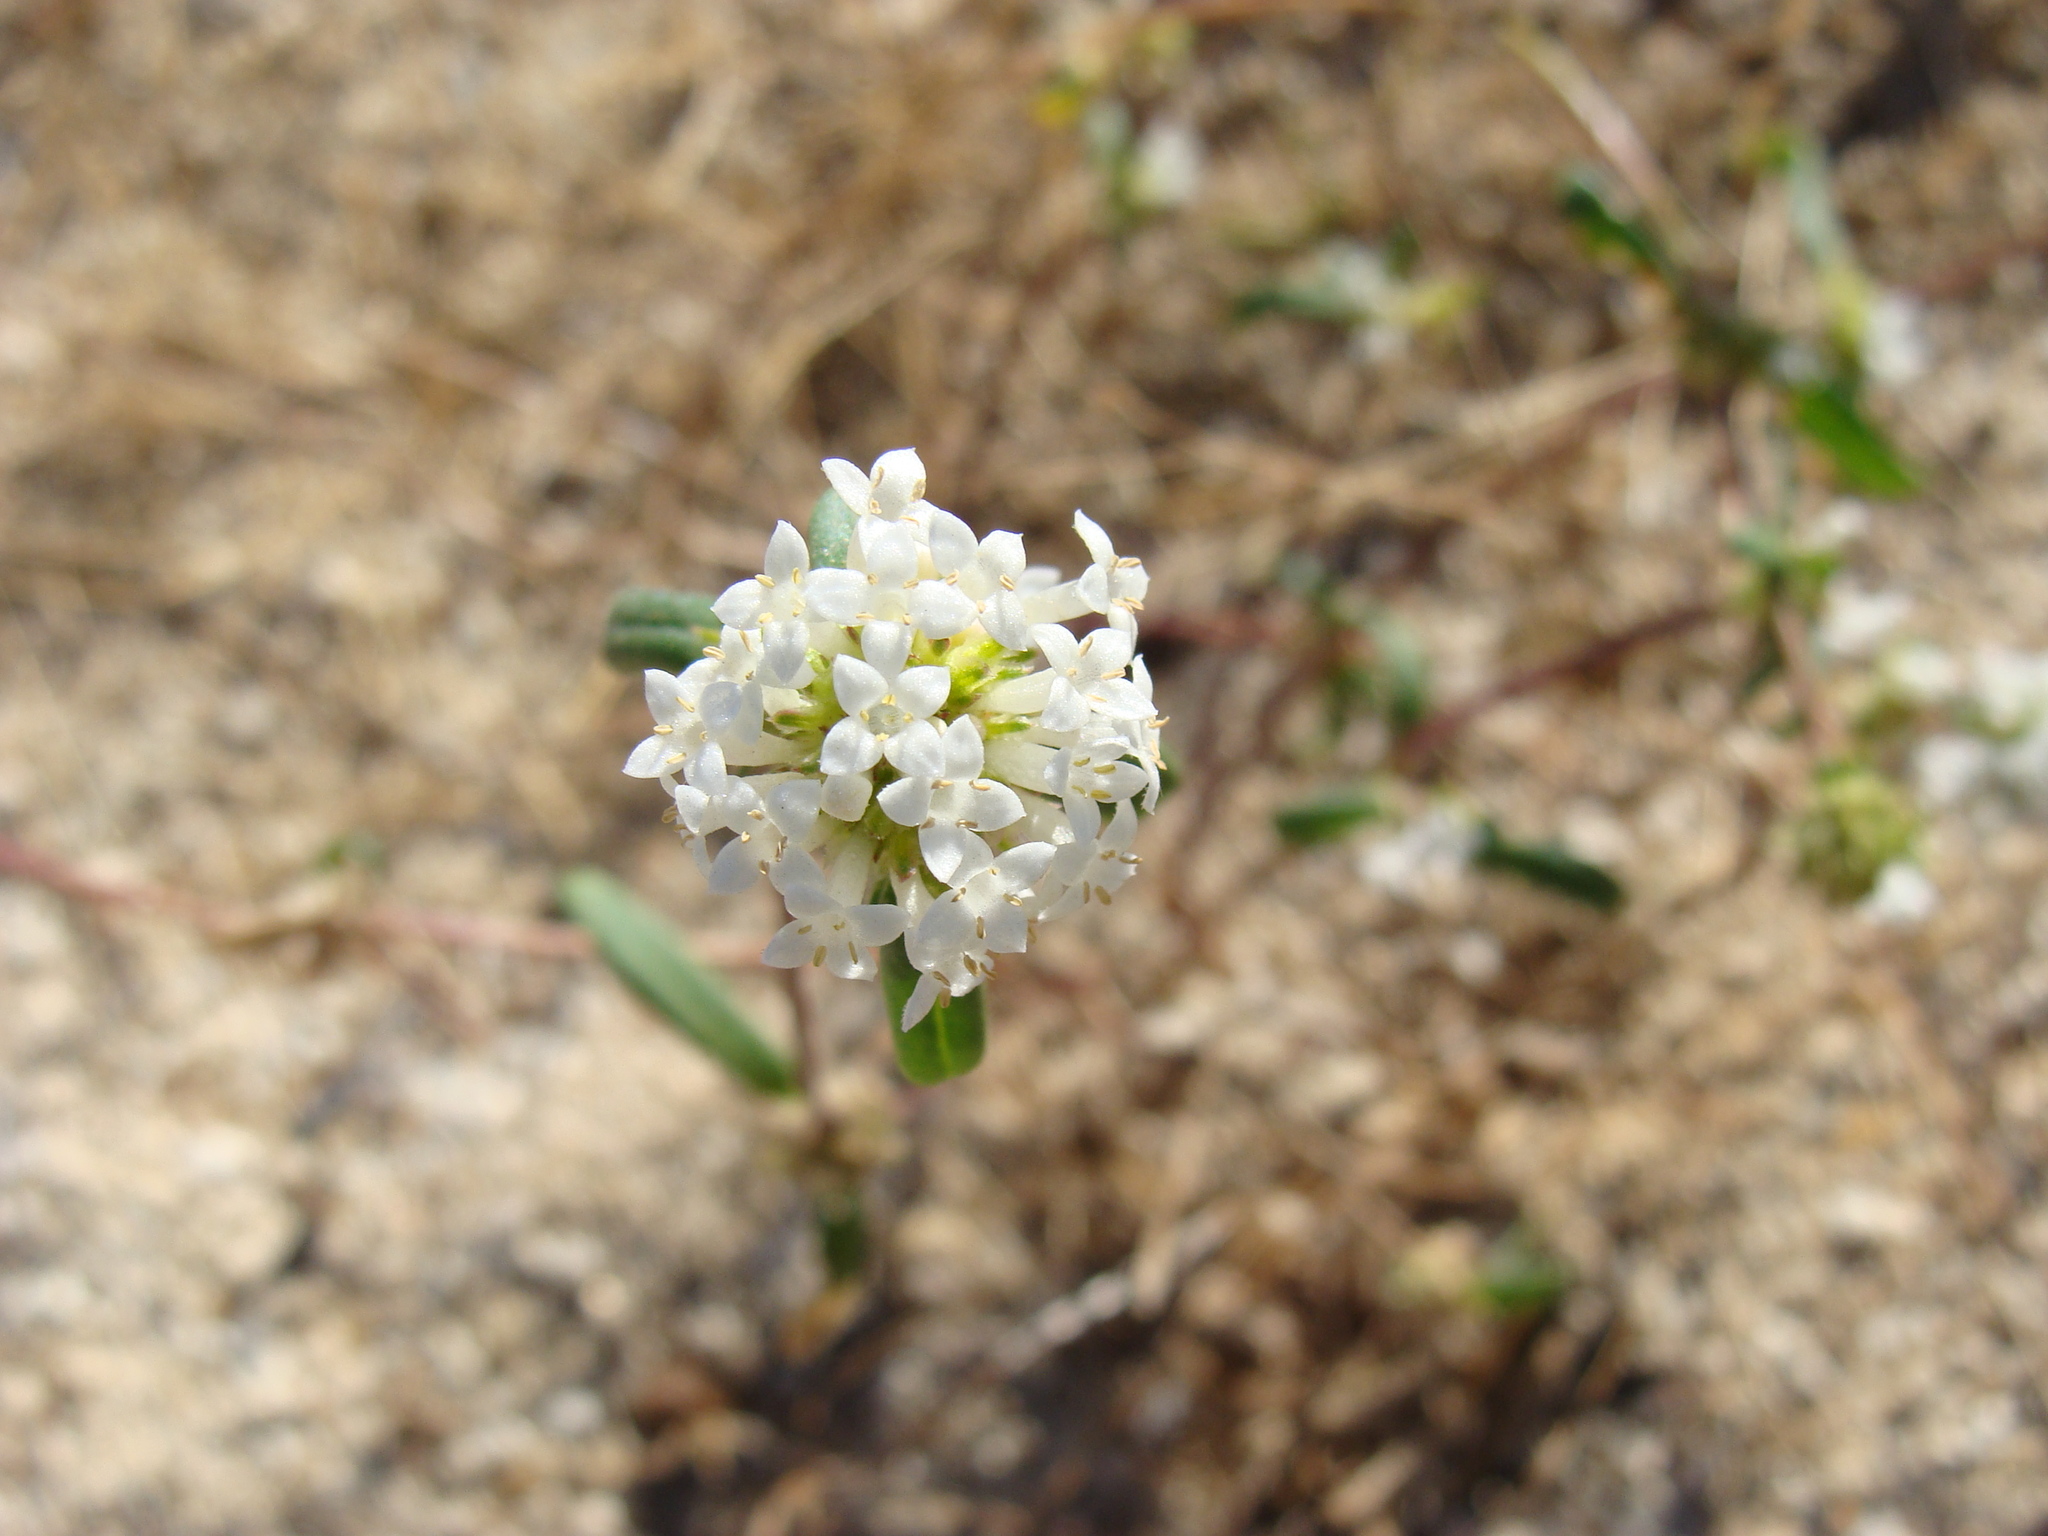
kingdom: Plantae
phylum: Tracheophyta
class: Magnoliopsida
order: Gentianales
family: Rubiaceae
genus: Mitracarpus
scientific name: Mitracarpus hirtus
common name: Tropical girdlepod
